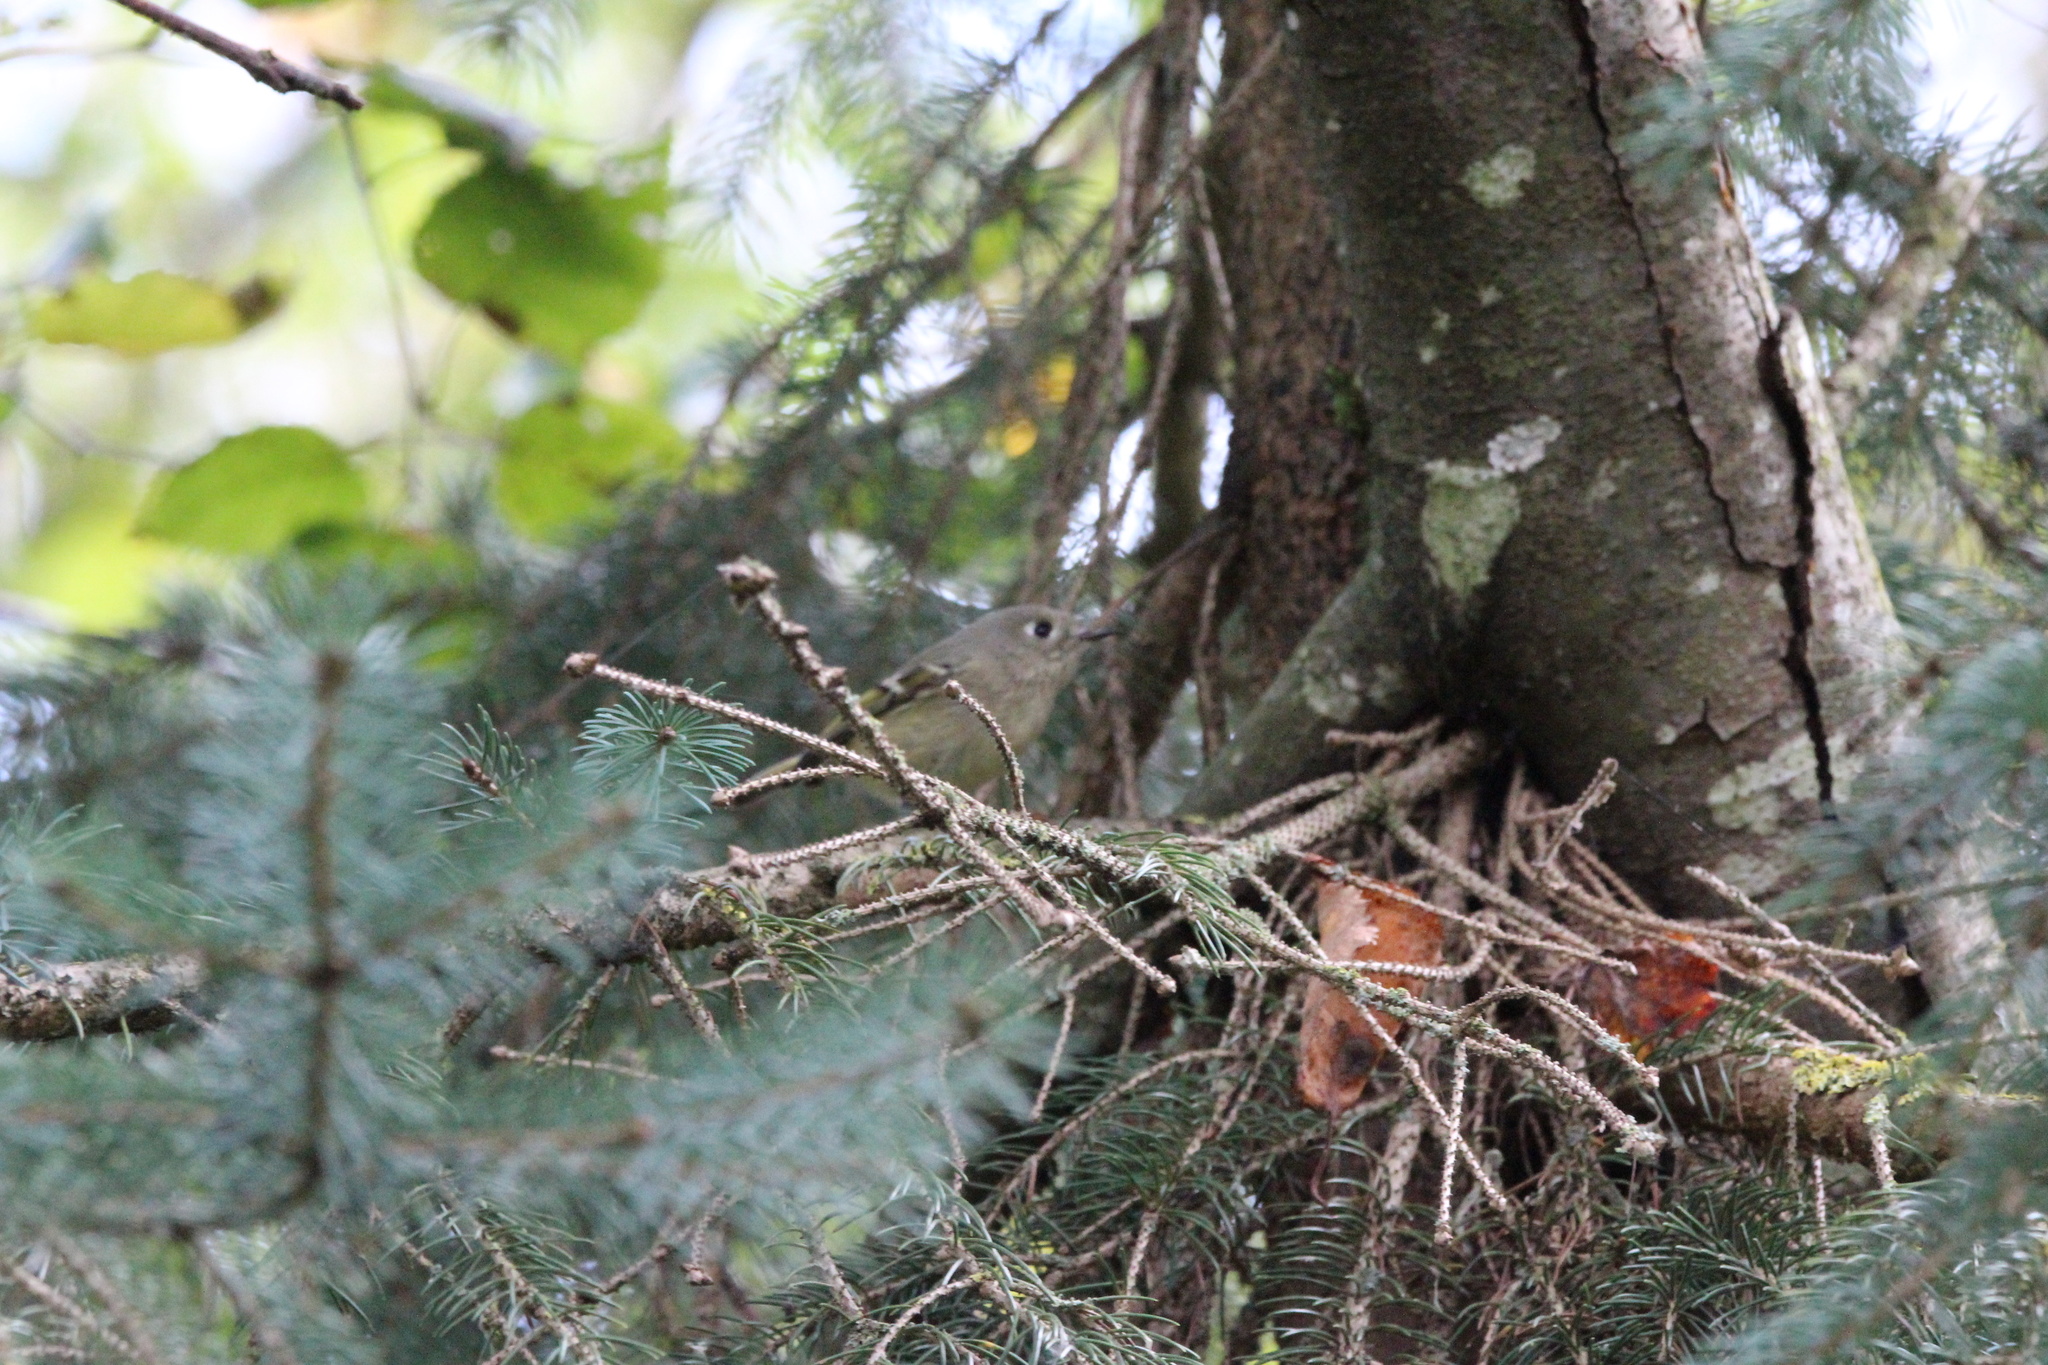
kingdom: Animalia
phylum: Chordata
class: Aves
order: Passeriformes
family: Regulidae
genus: Regulus
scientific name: Regulus calendula
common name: Ruby-crowned kinglet
